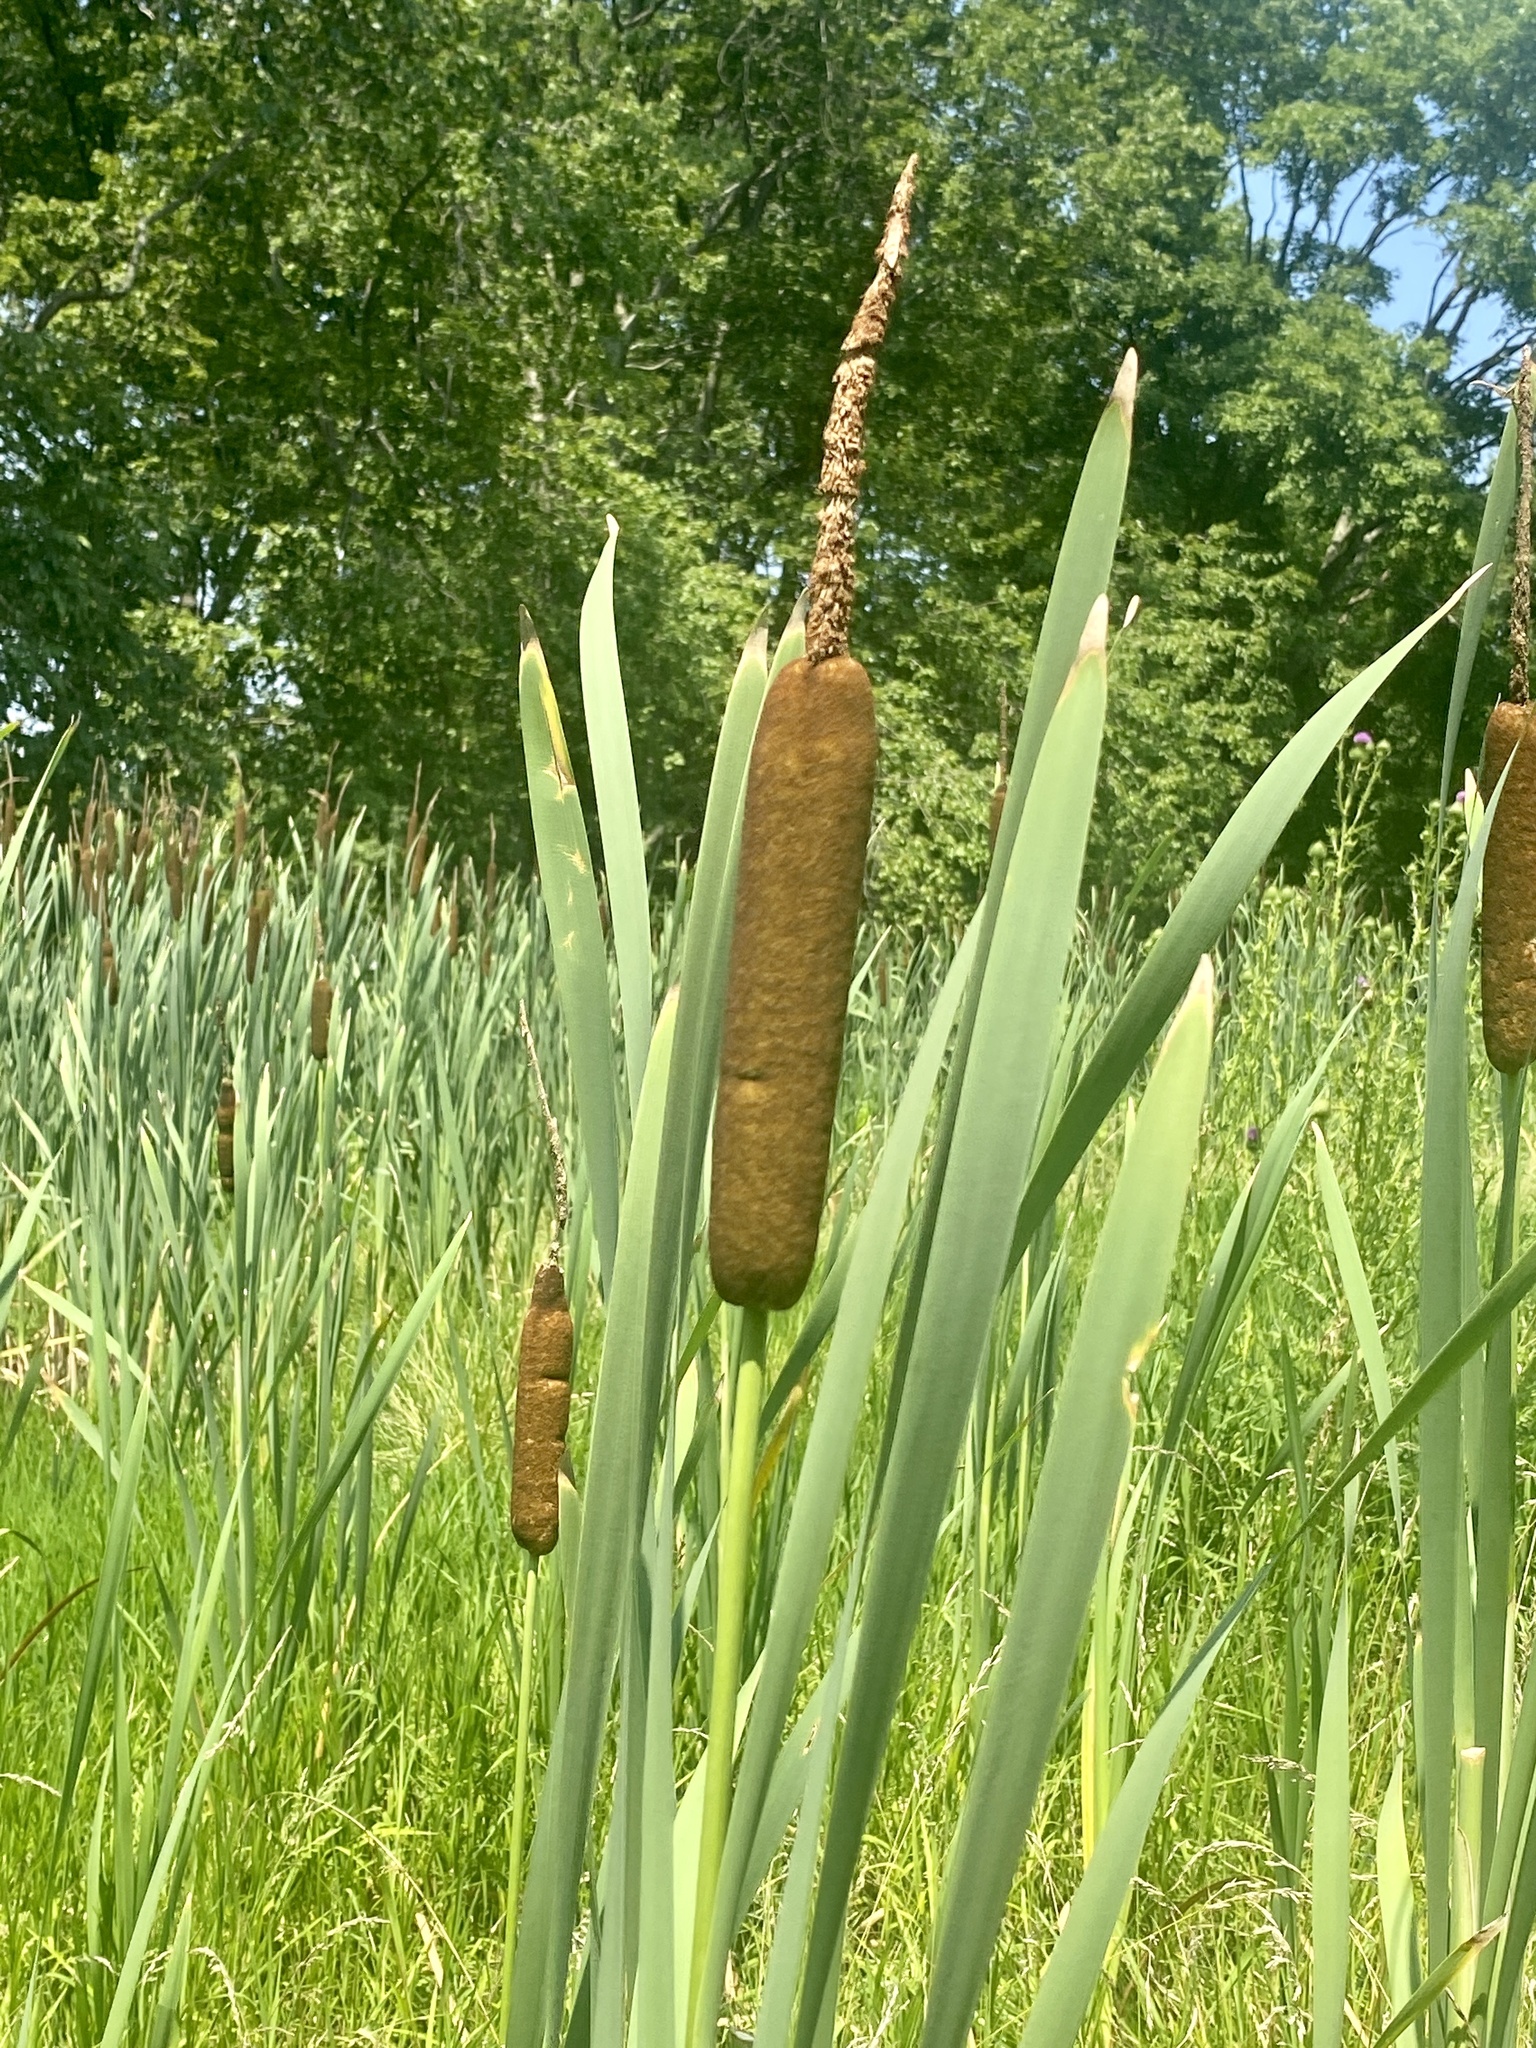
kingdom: Plantae
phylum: Tracheophyta
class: Liliopsida
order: Poales
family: Typhaceae
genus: Typha
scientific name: Typha latifolia
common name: Broadleaf cattail
